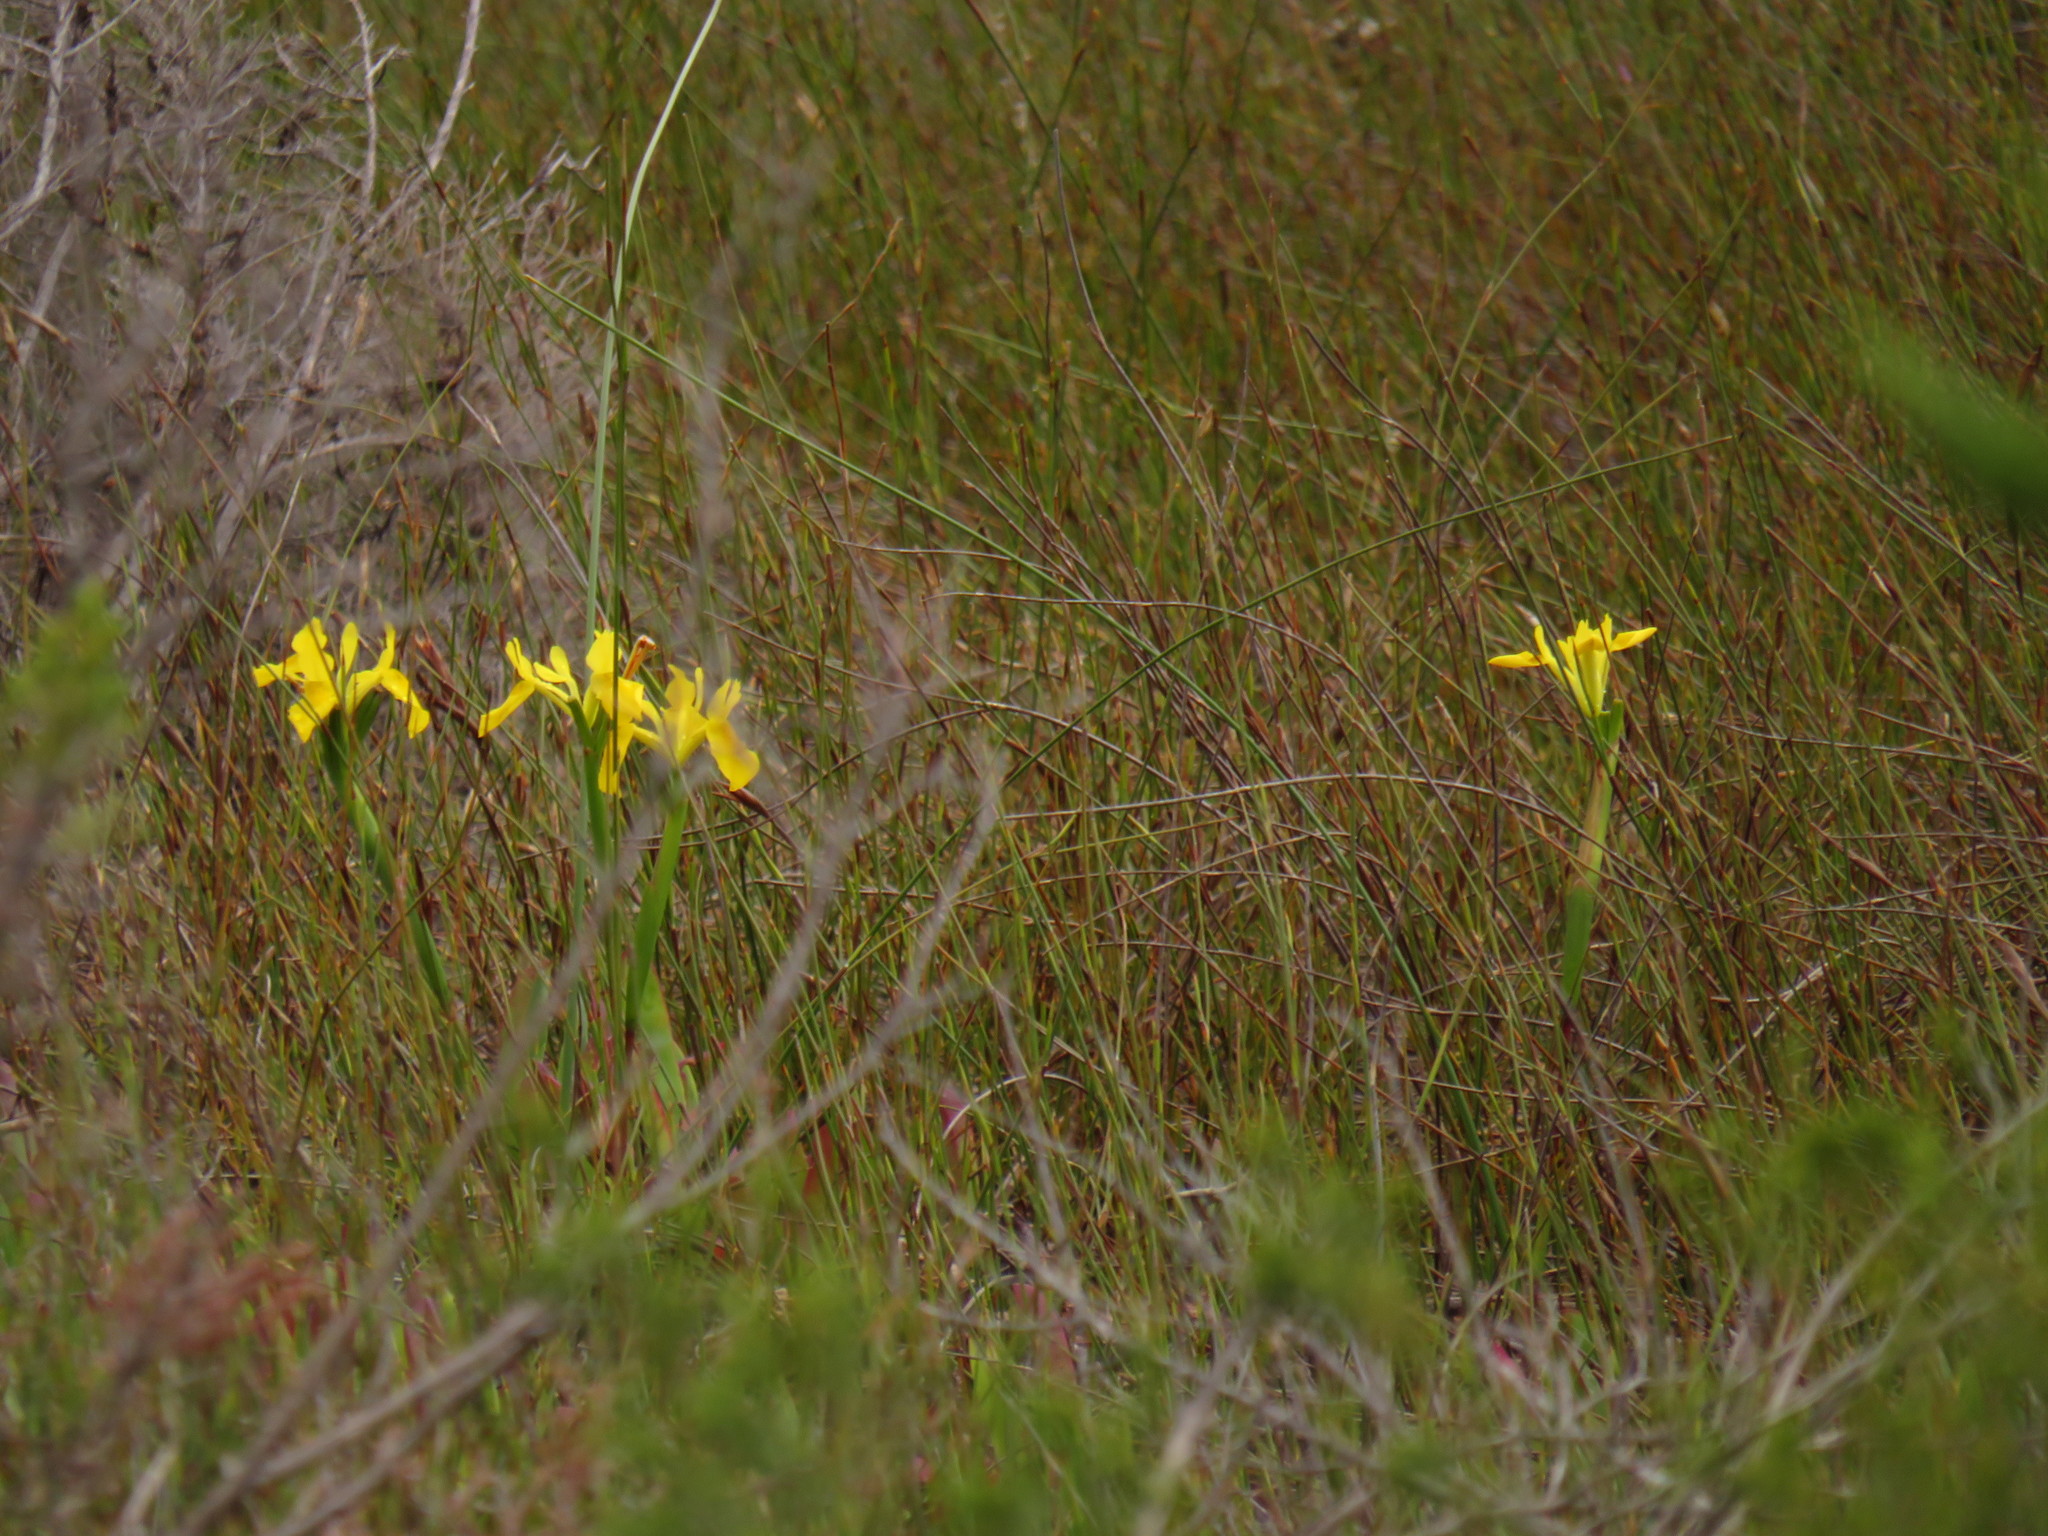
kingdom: Plantae
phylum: Tracheophyta
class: Liliopsida
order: Asparagales
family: Iridaceae
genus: Moraea
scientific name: Moraea neglecta
